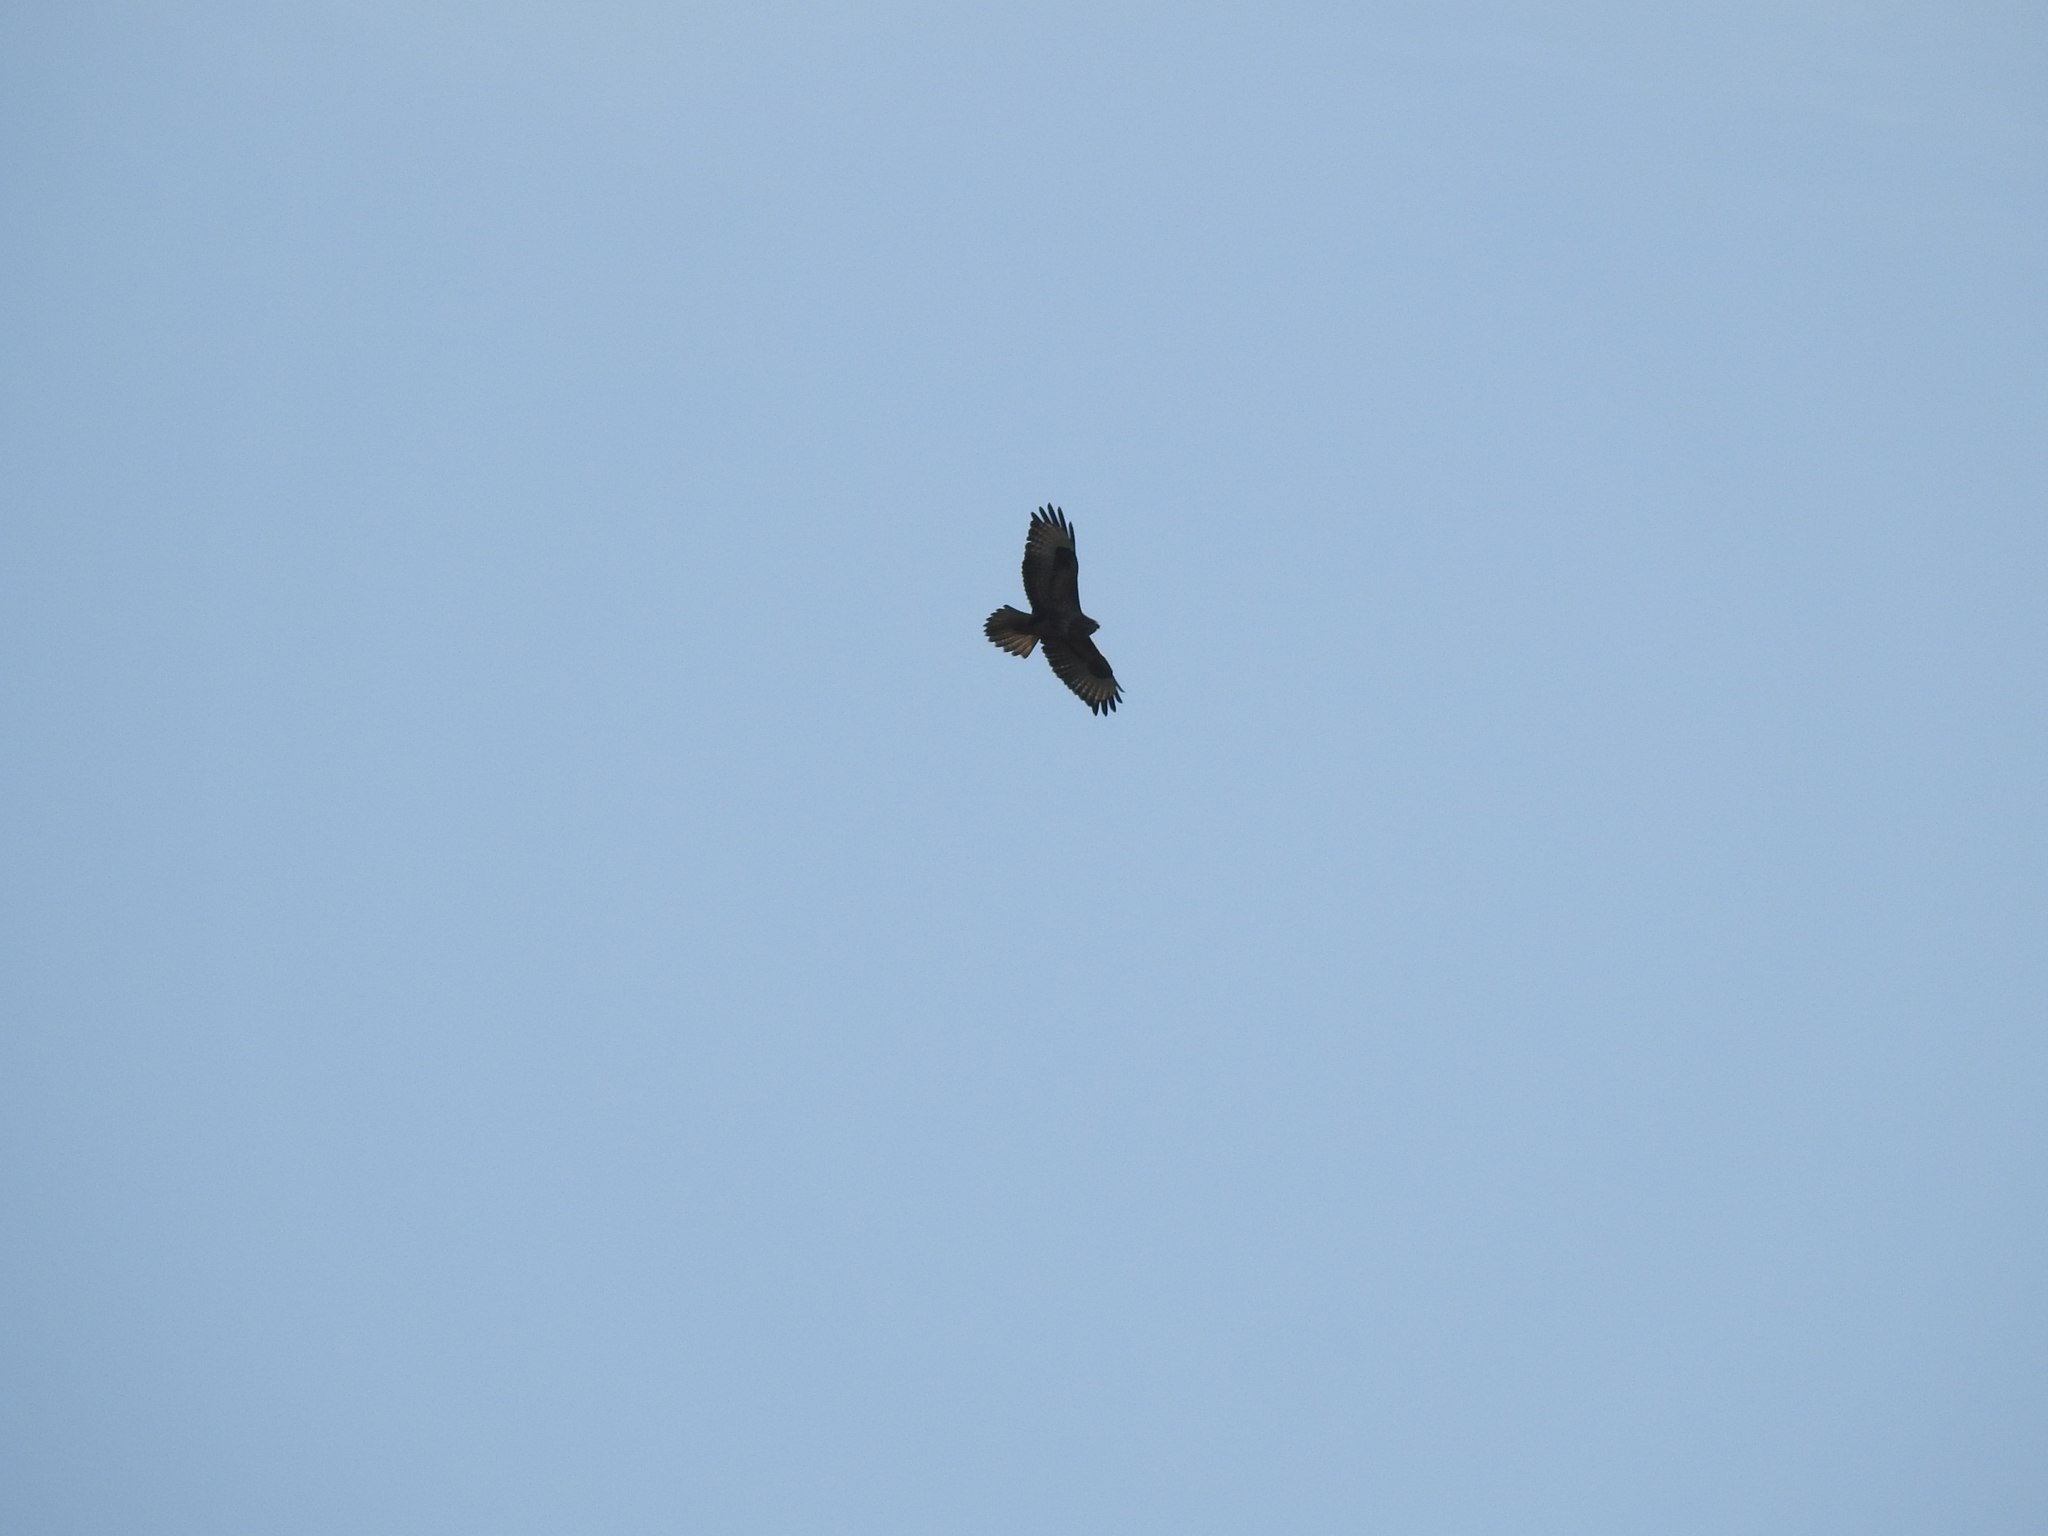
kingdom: Animalia
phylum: Chordata
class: Aves
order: Accipitriformes
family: Accipitridae
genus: Buteo
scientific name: Buteo buteo
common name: Common buzzard
